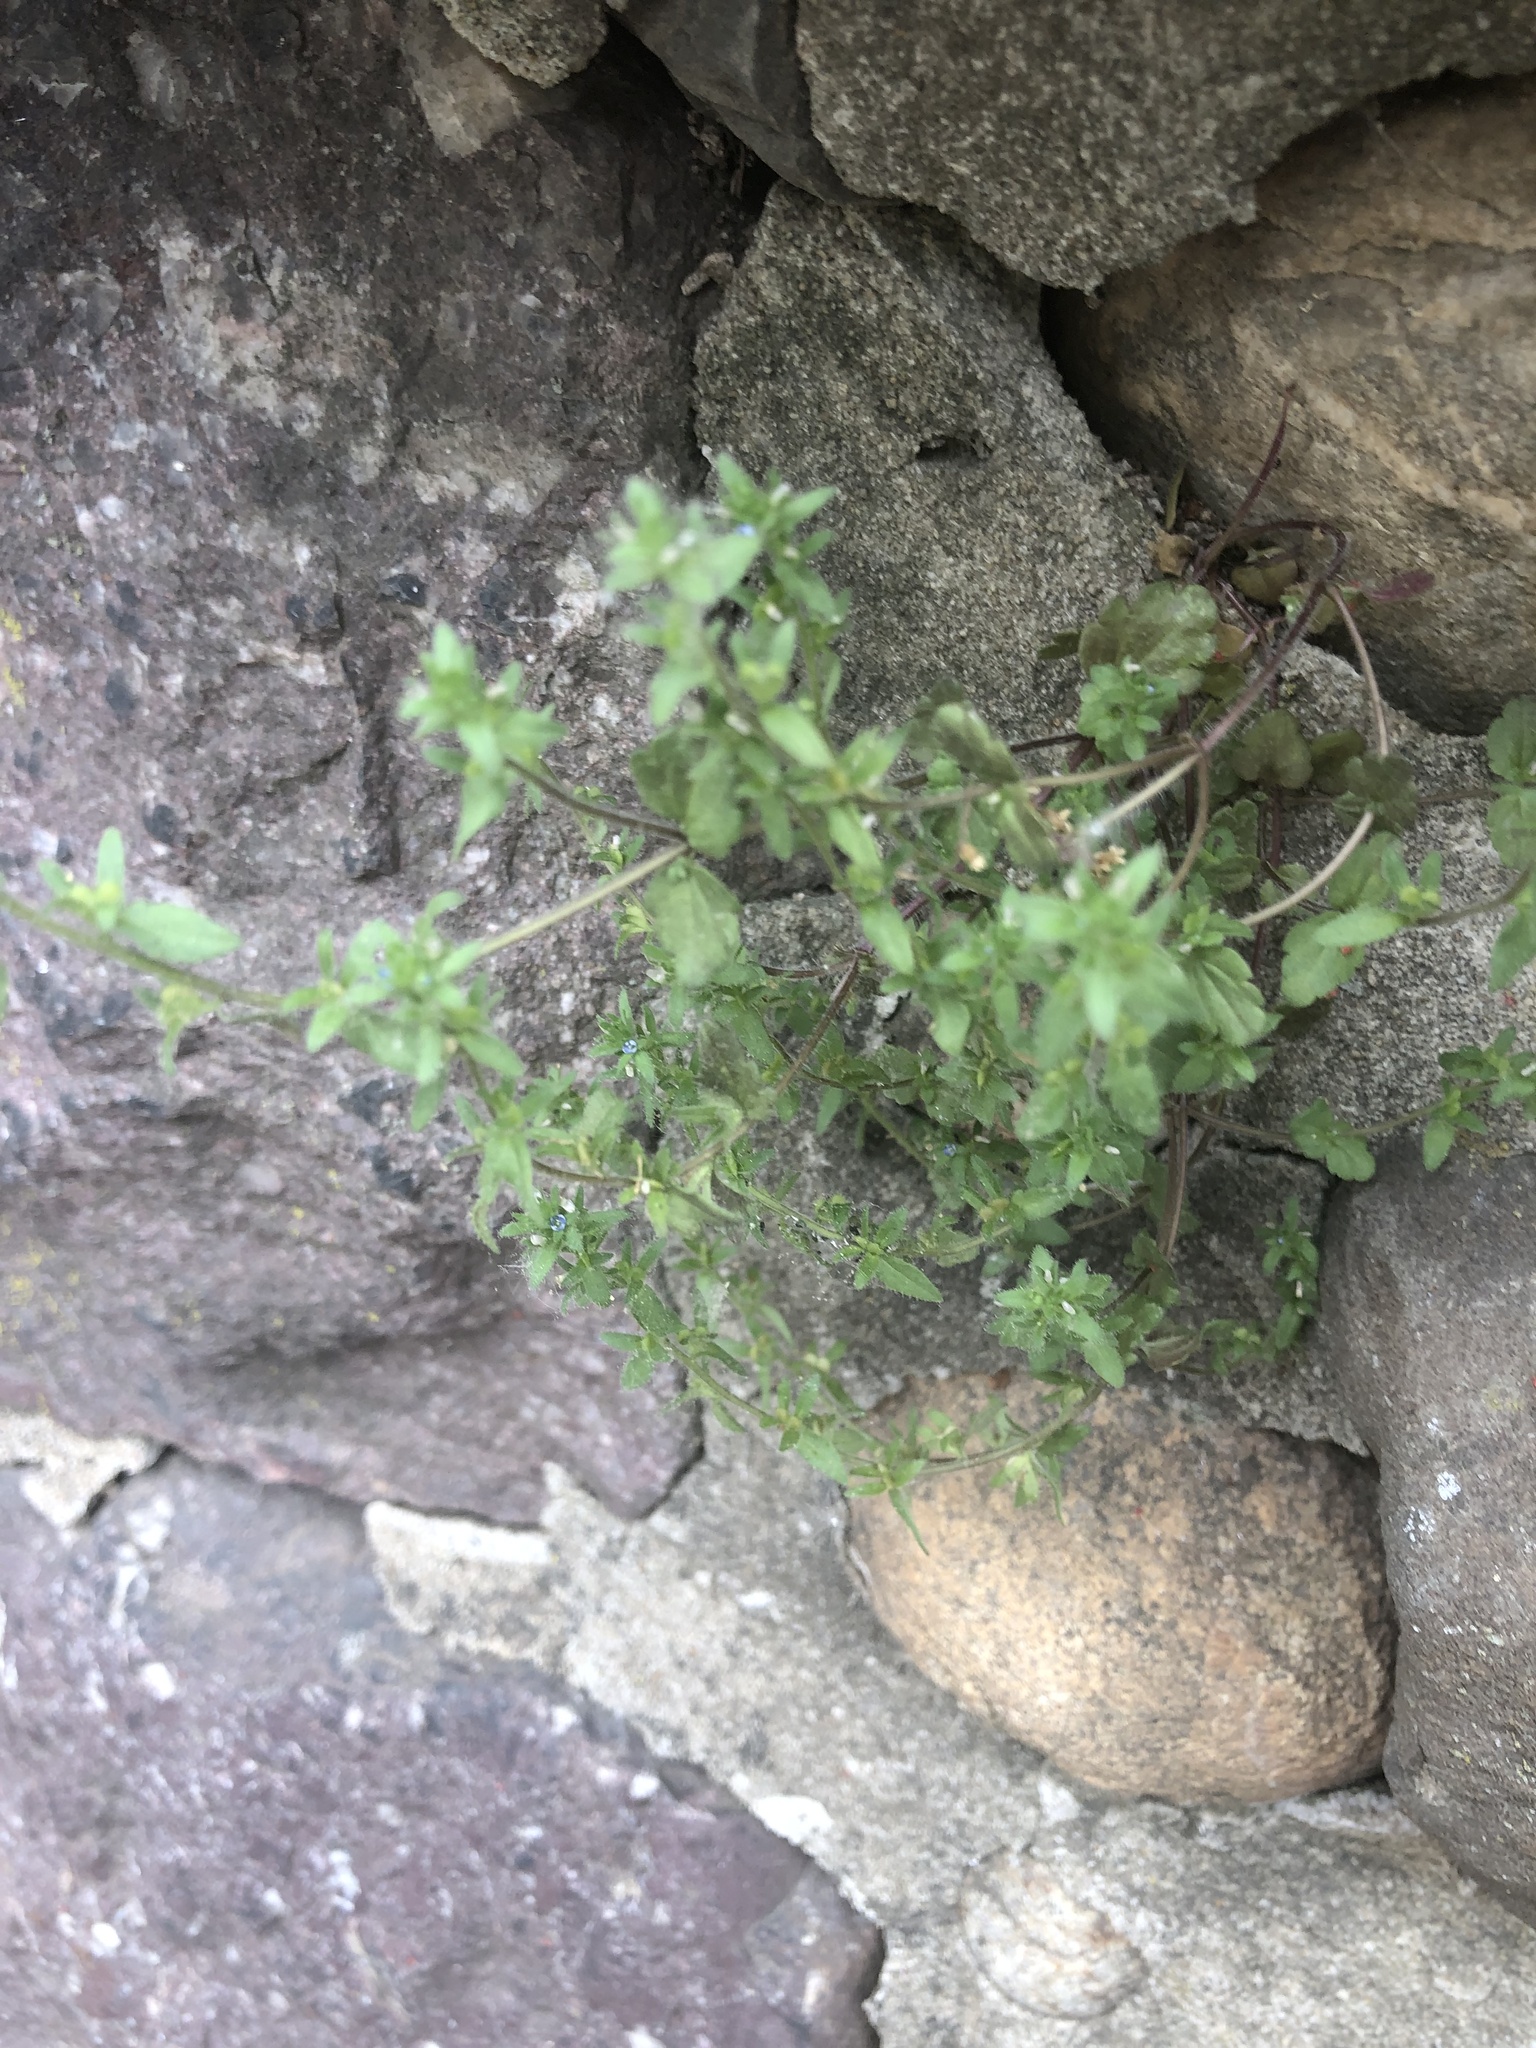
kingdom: Plantae
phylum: Tracheophyta
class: Magnoliopsida
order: Lamiales
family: Plantaginaceae
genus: Veronica
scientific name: Veronica arvensis
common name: Corn speedwell
